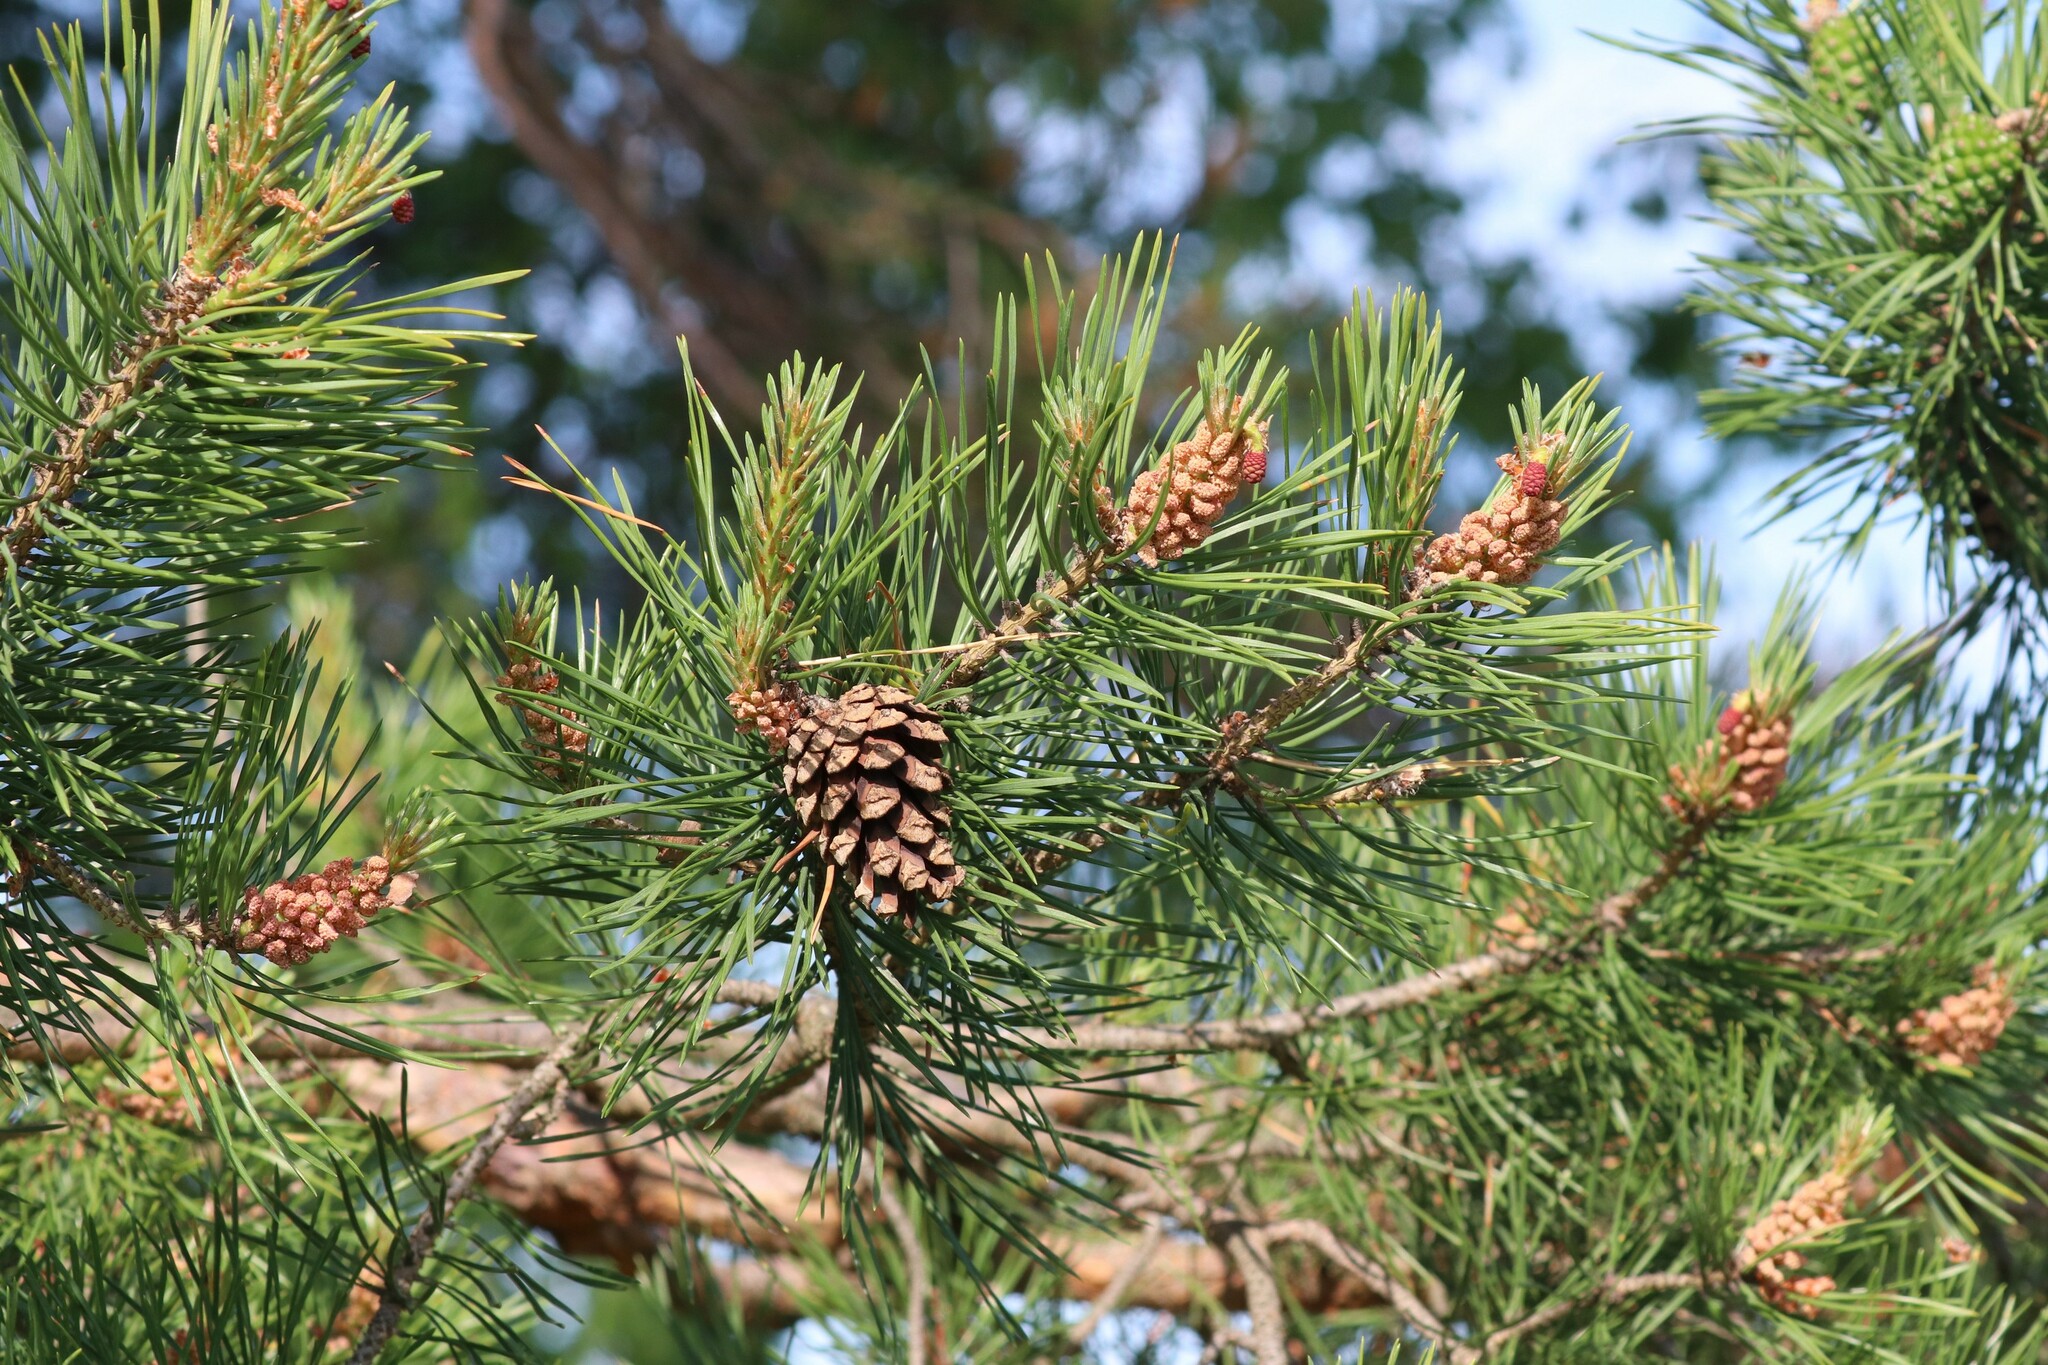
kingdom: Plantae
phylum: Tracheophyta
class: Pinopsida
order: Pinales
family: Pinaceae
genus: Pinus
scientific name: Pinus sylvestris
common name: Scots pine
